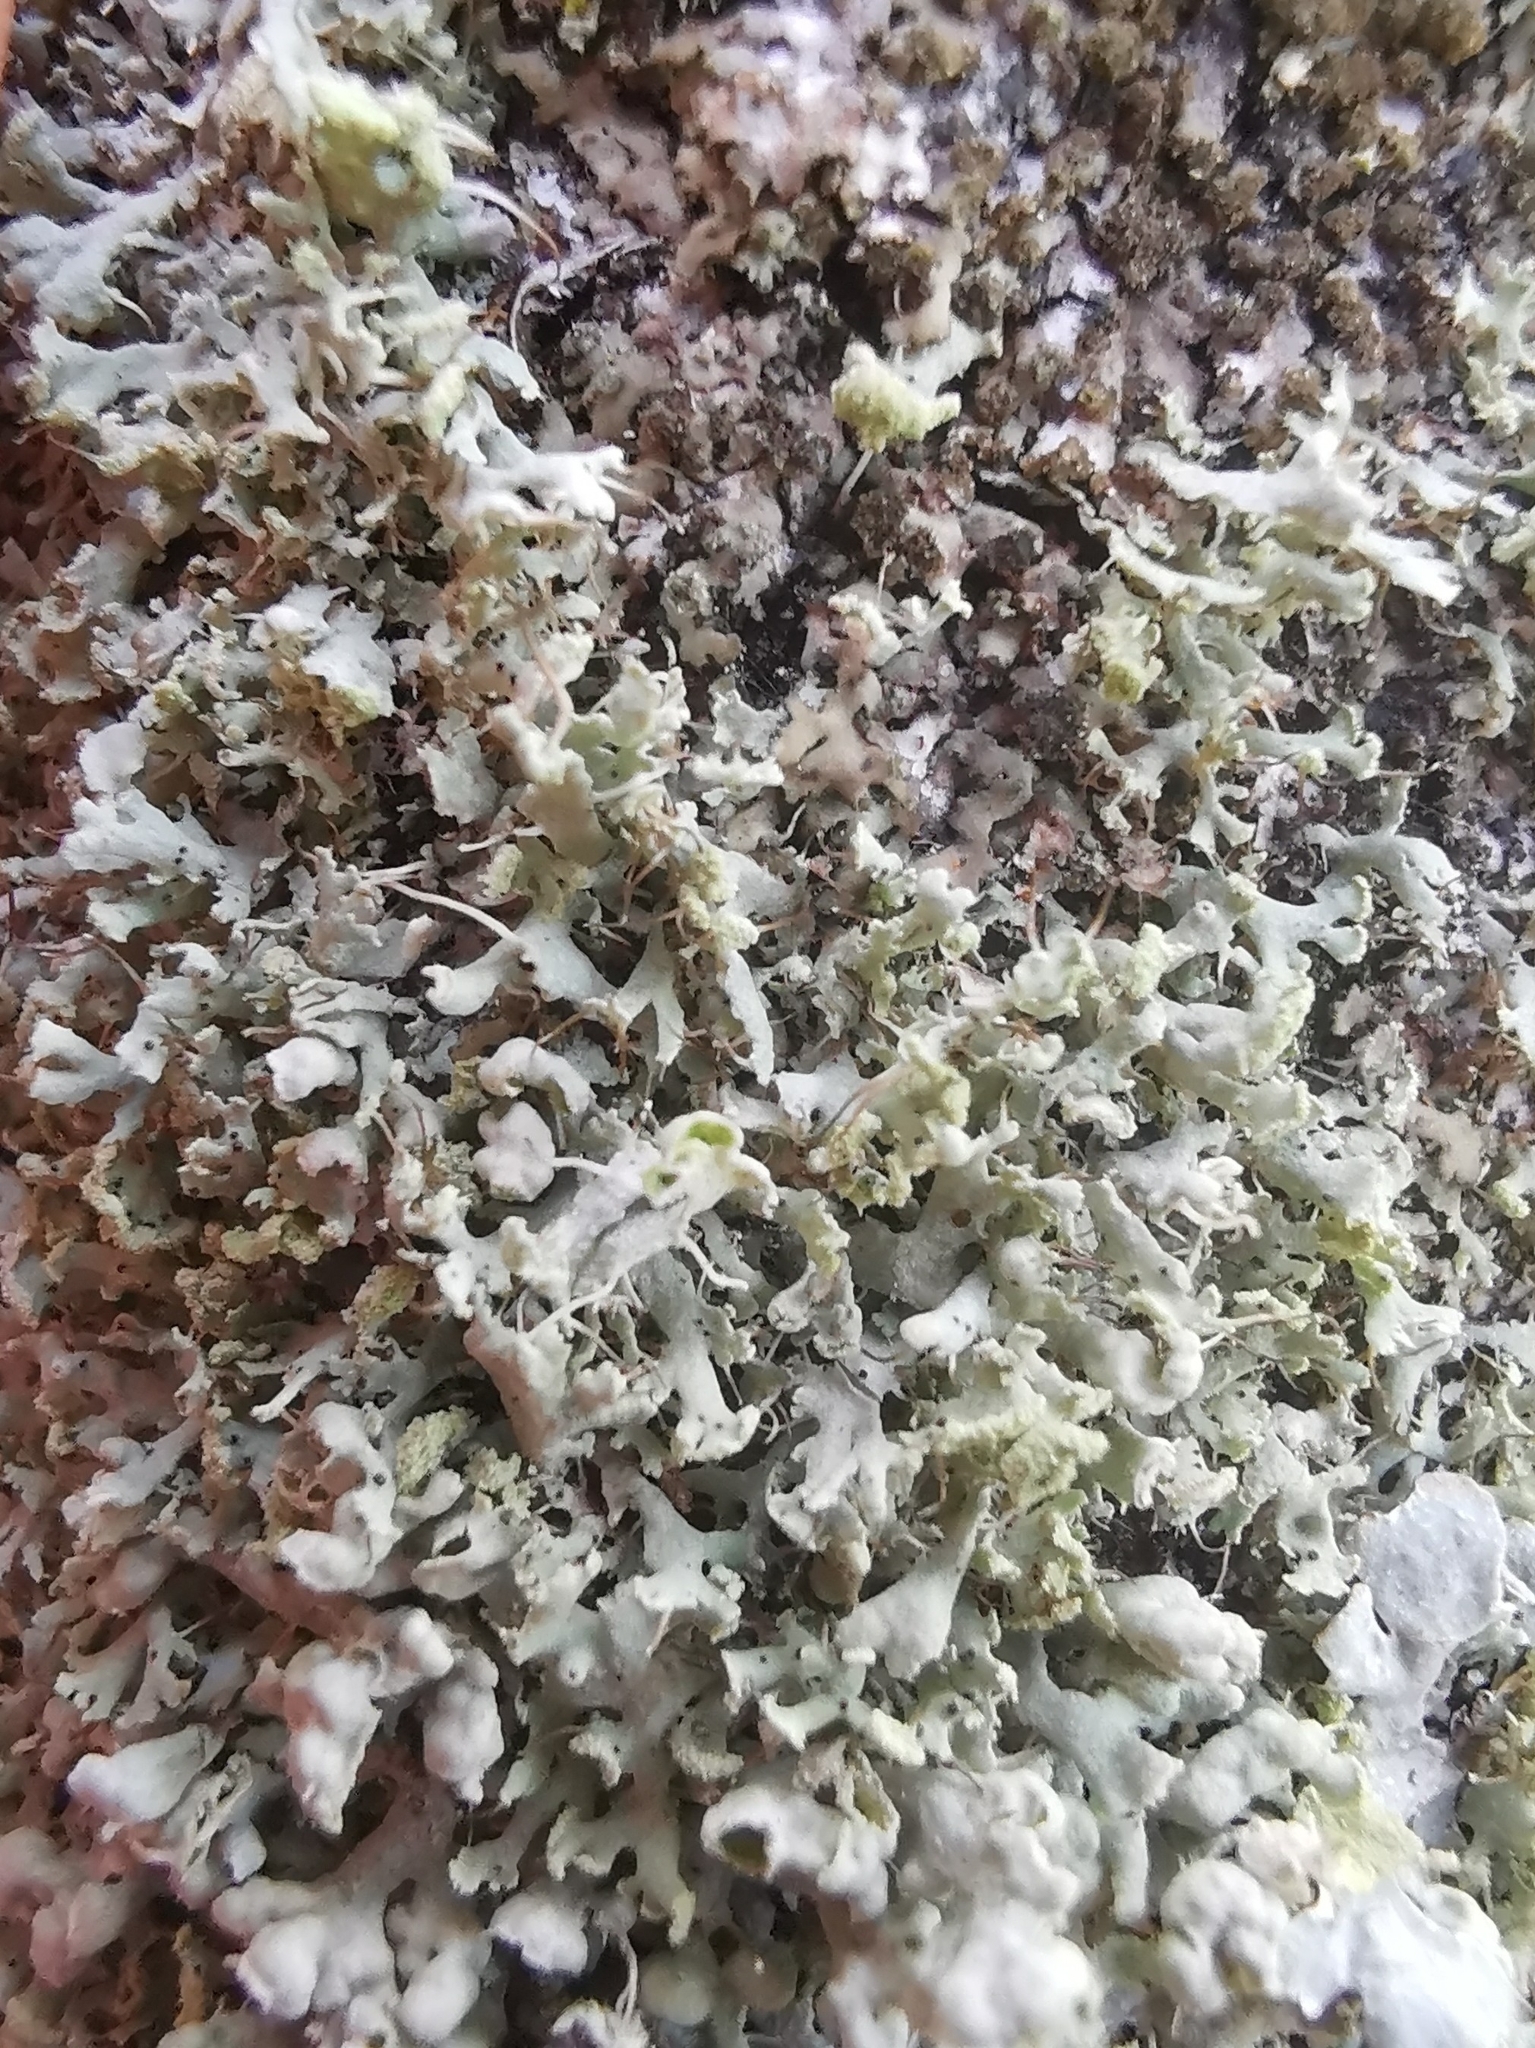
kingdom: Fungi
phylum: Ascomycota
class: Lecanoromycetes
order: Caliciales
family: Physciaceae
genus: Physcia
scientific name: Physcia tenella
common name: Fringed rosette lichen
